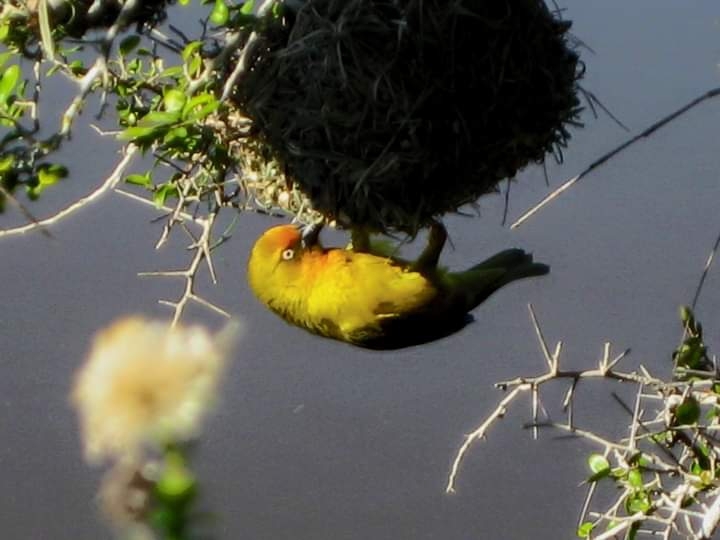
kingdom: Animalia
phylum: Chordata
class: Aves
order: Passeriformes
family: Ploceidae
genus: Ploceus
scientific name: Ploceus capensis
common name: Cape weaver
